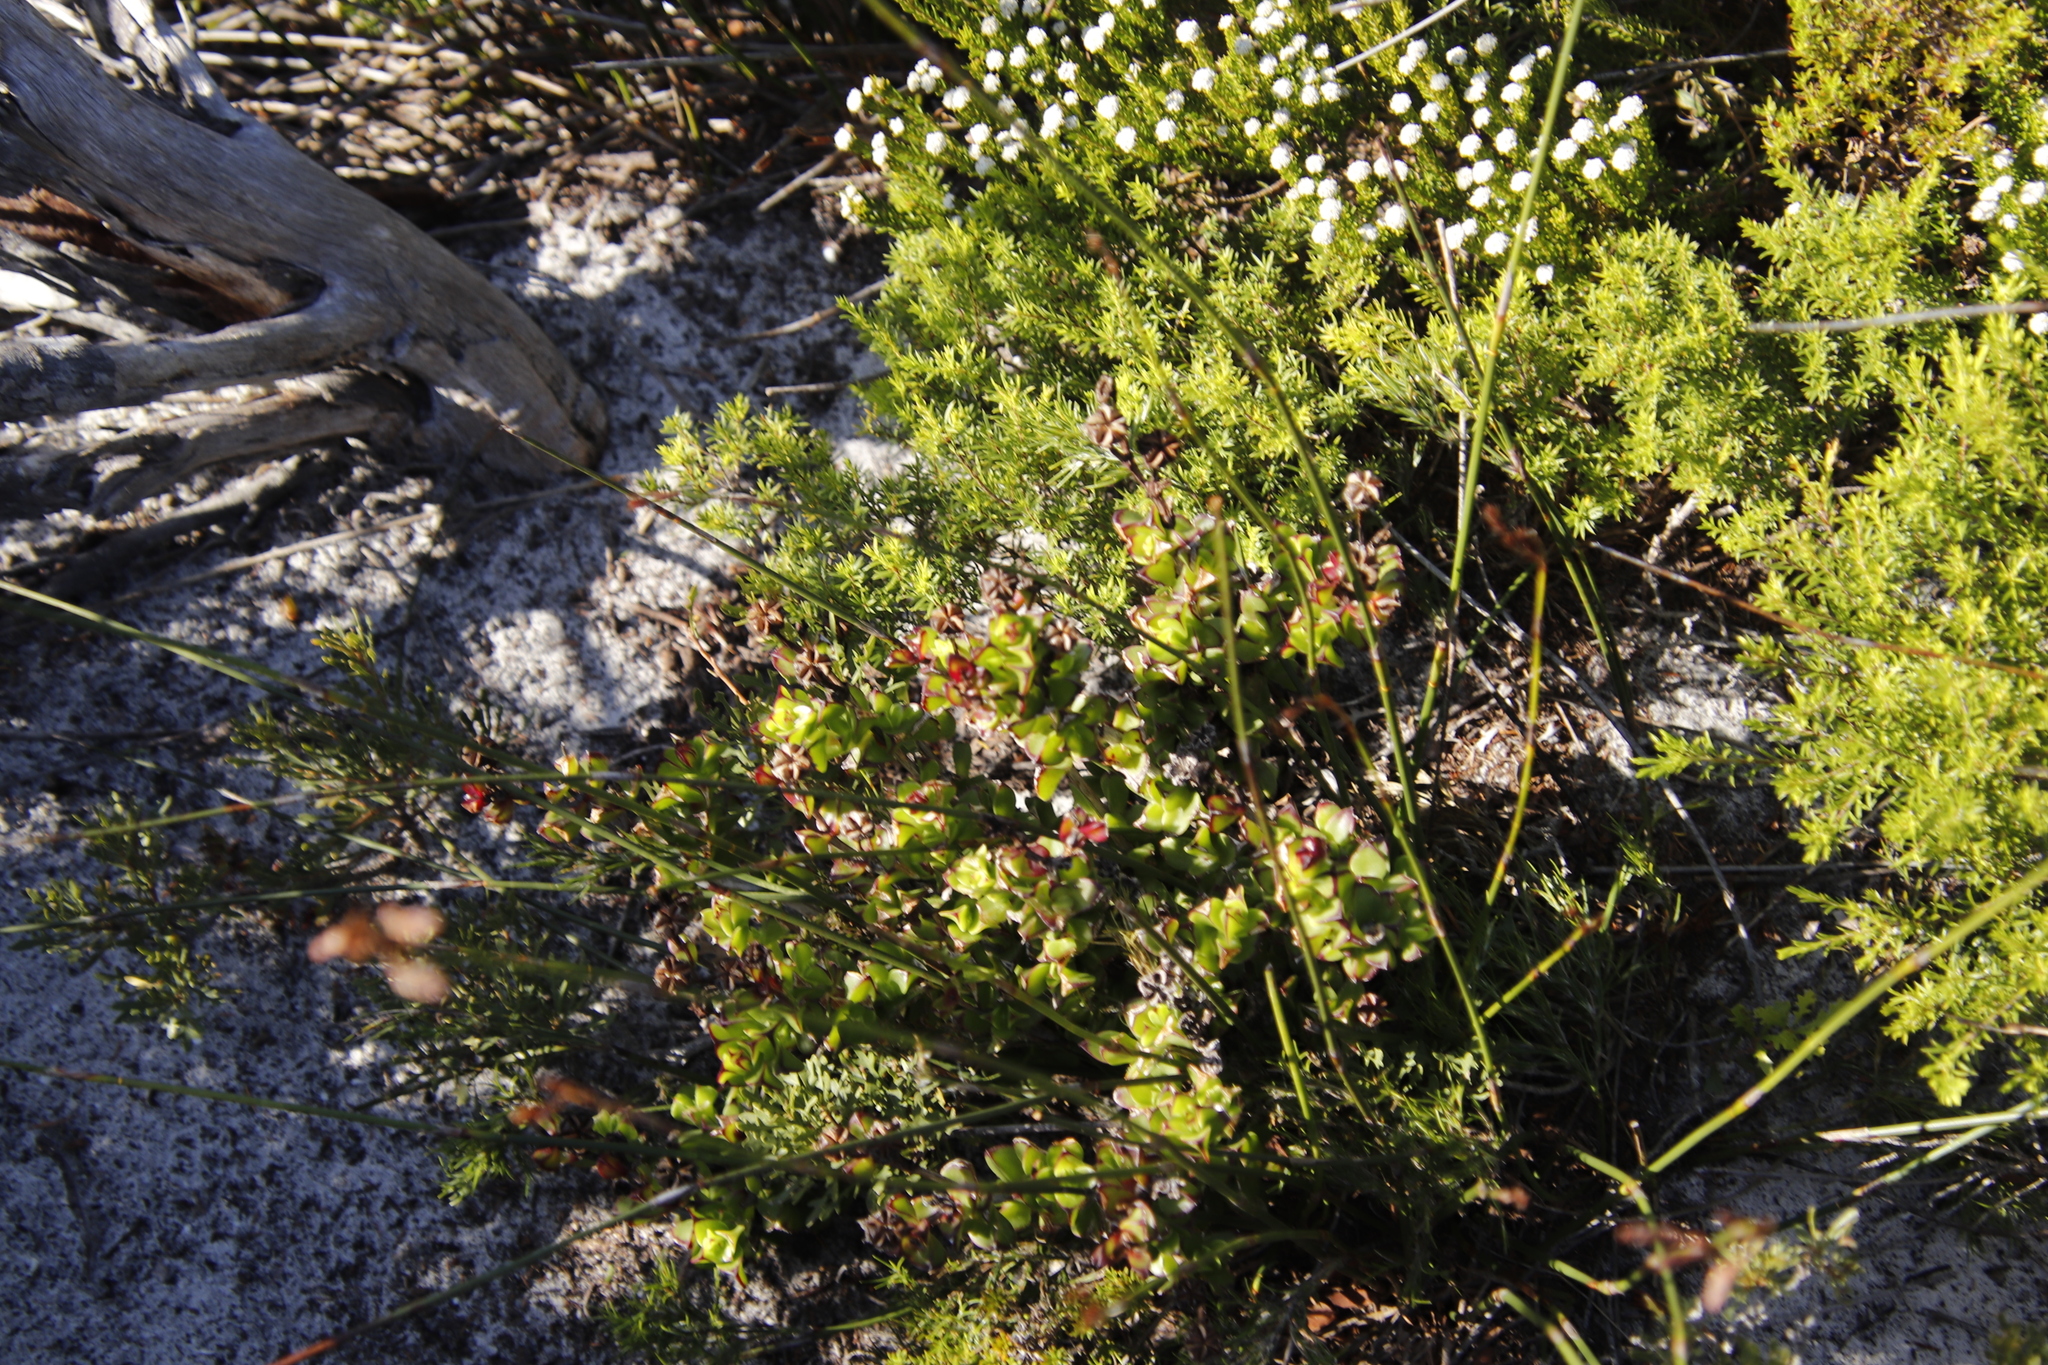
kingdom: Plantae
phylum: Tracheophyta
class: Magnoliopsida
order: Caryophyllales
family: Aizoaceae
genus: Erepsia
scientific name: Erepsia inclaudens
